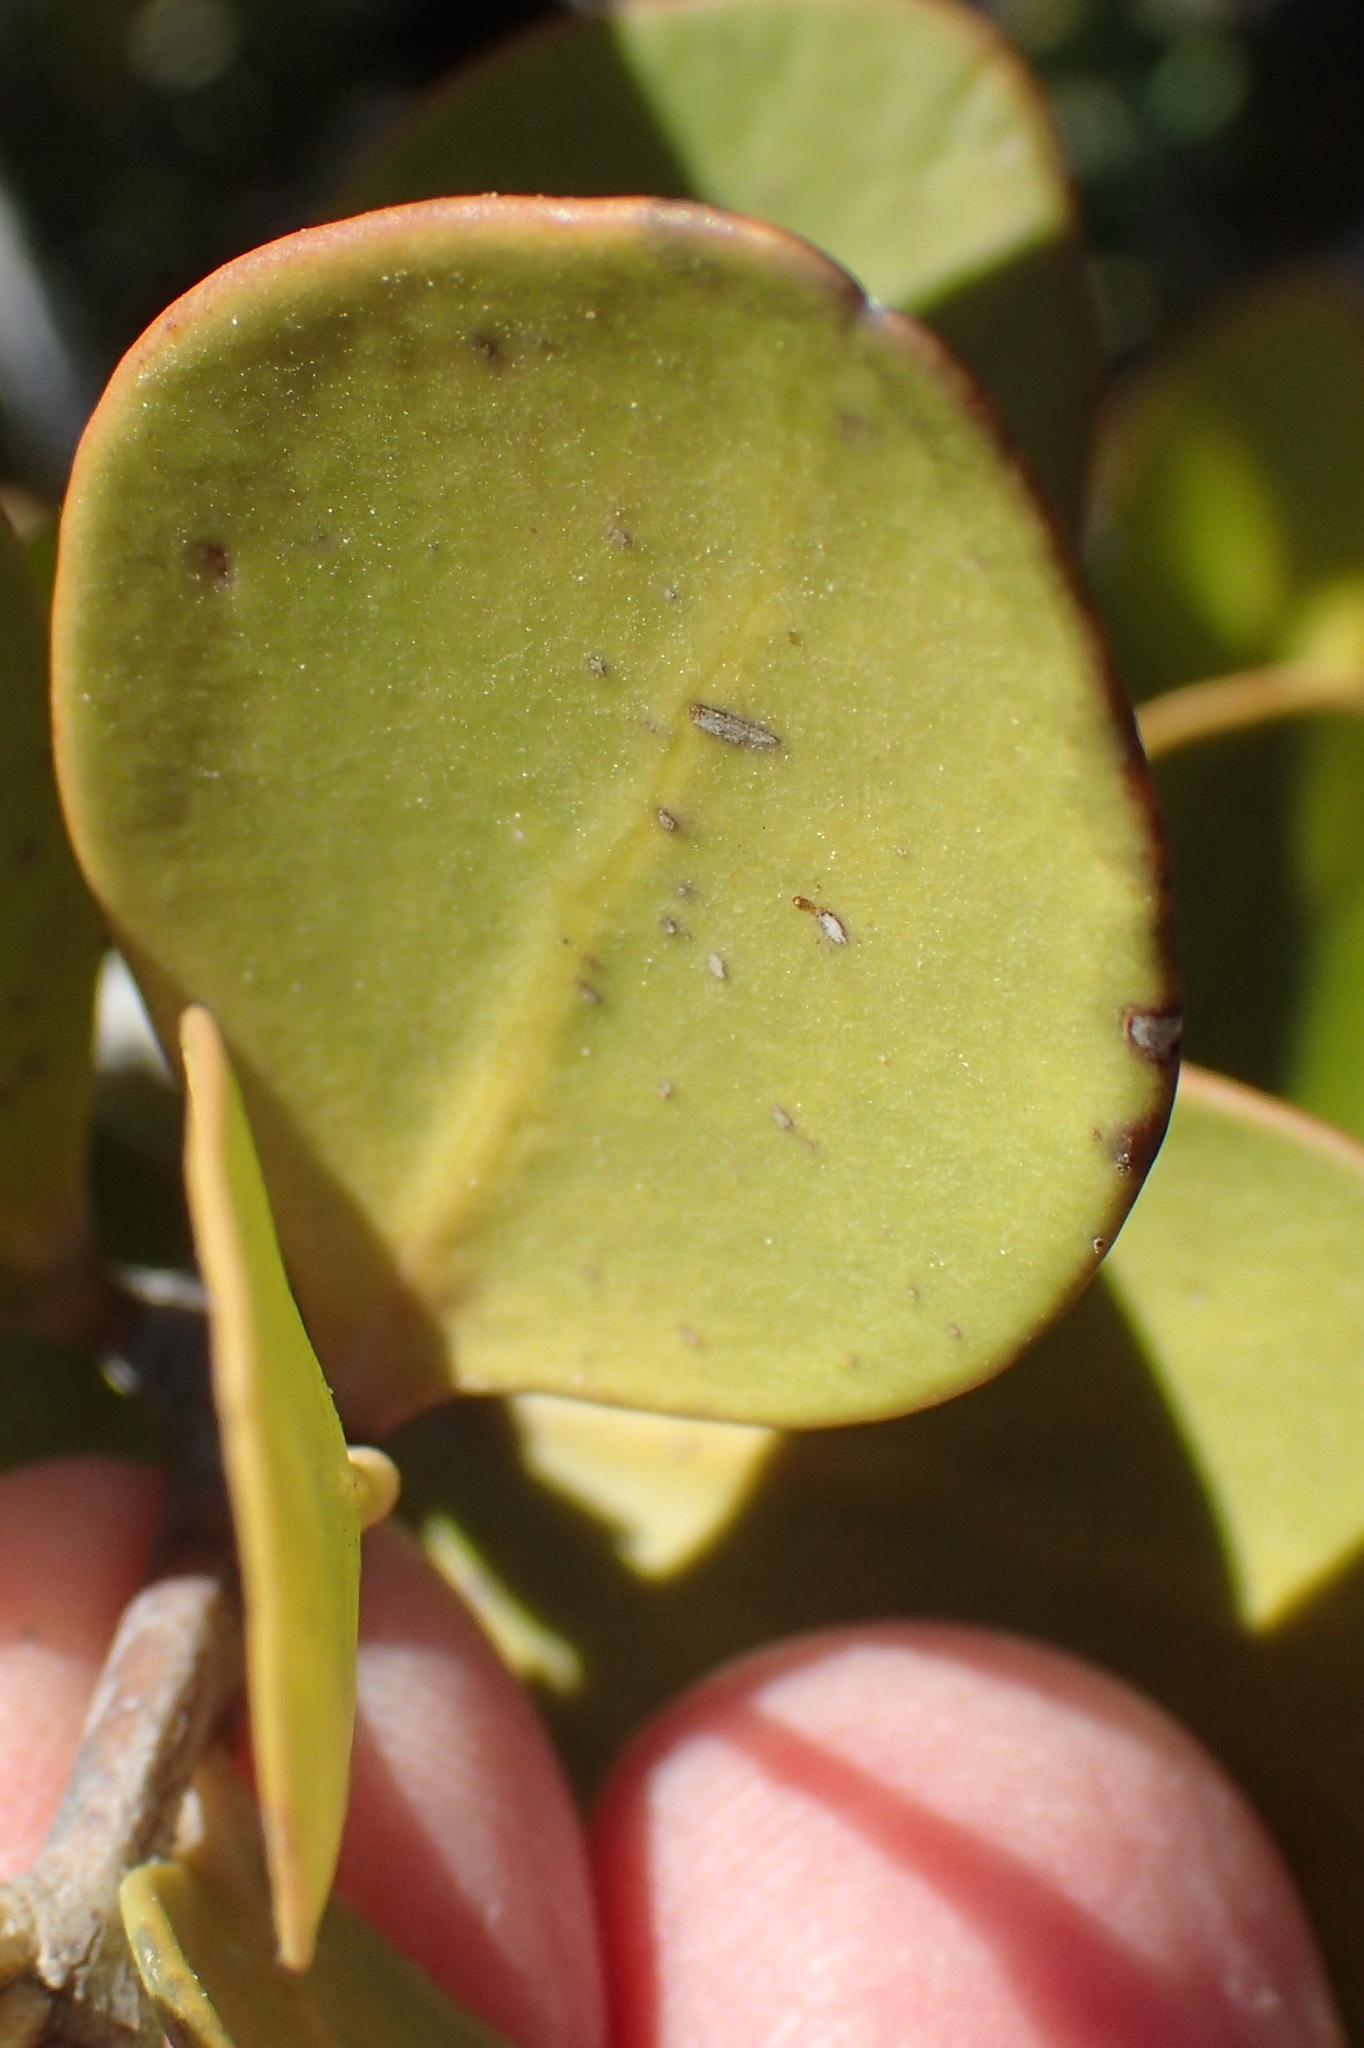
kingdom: Plantae
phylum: Tracheophyta
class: Magnoliopsida
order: Celastrales
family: Celastraceae
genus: Pterocelastrus
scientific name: Pterocelastrus tricuspidatus
